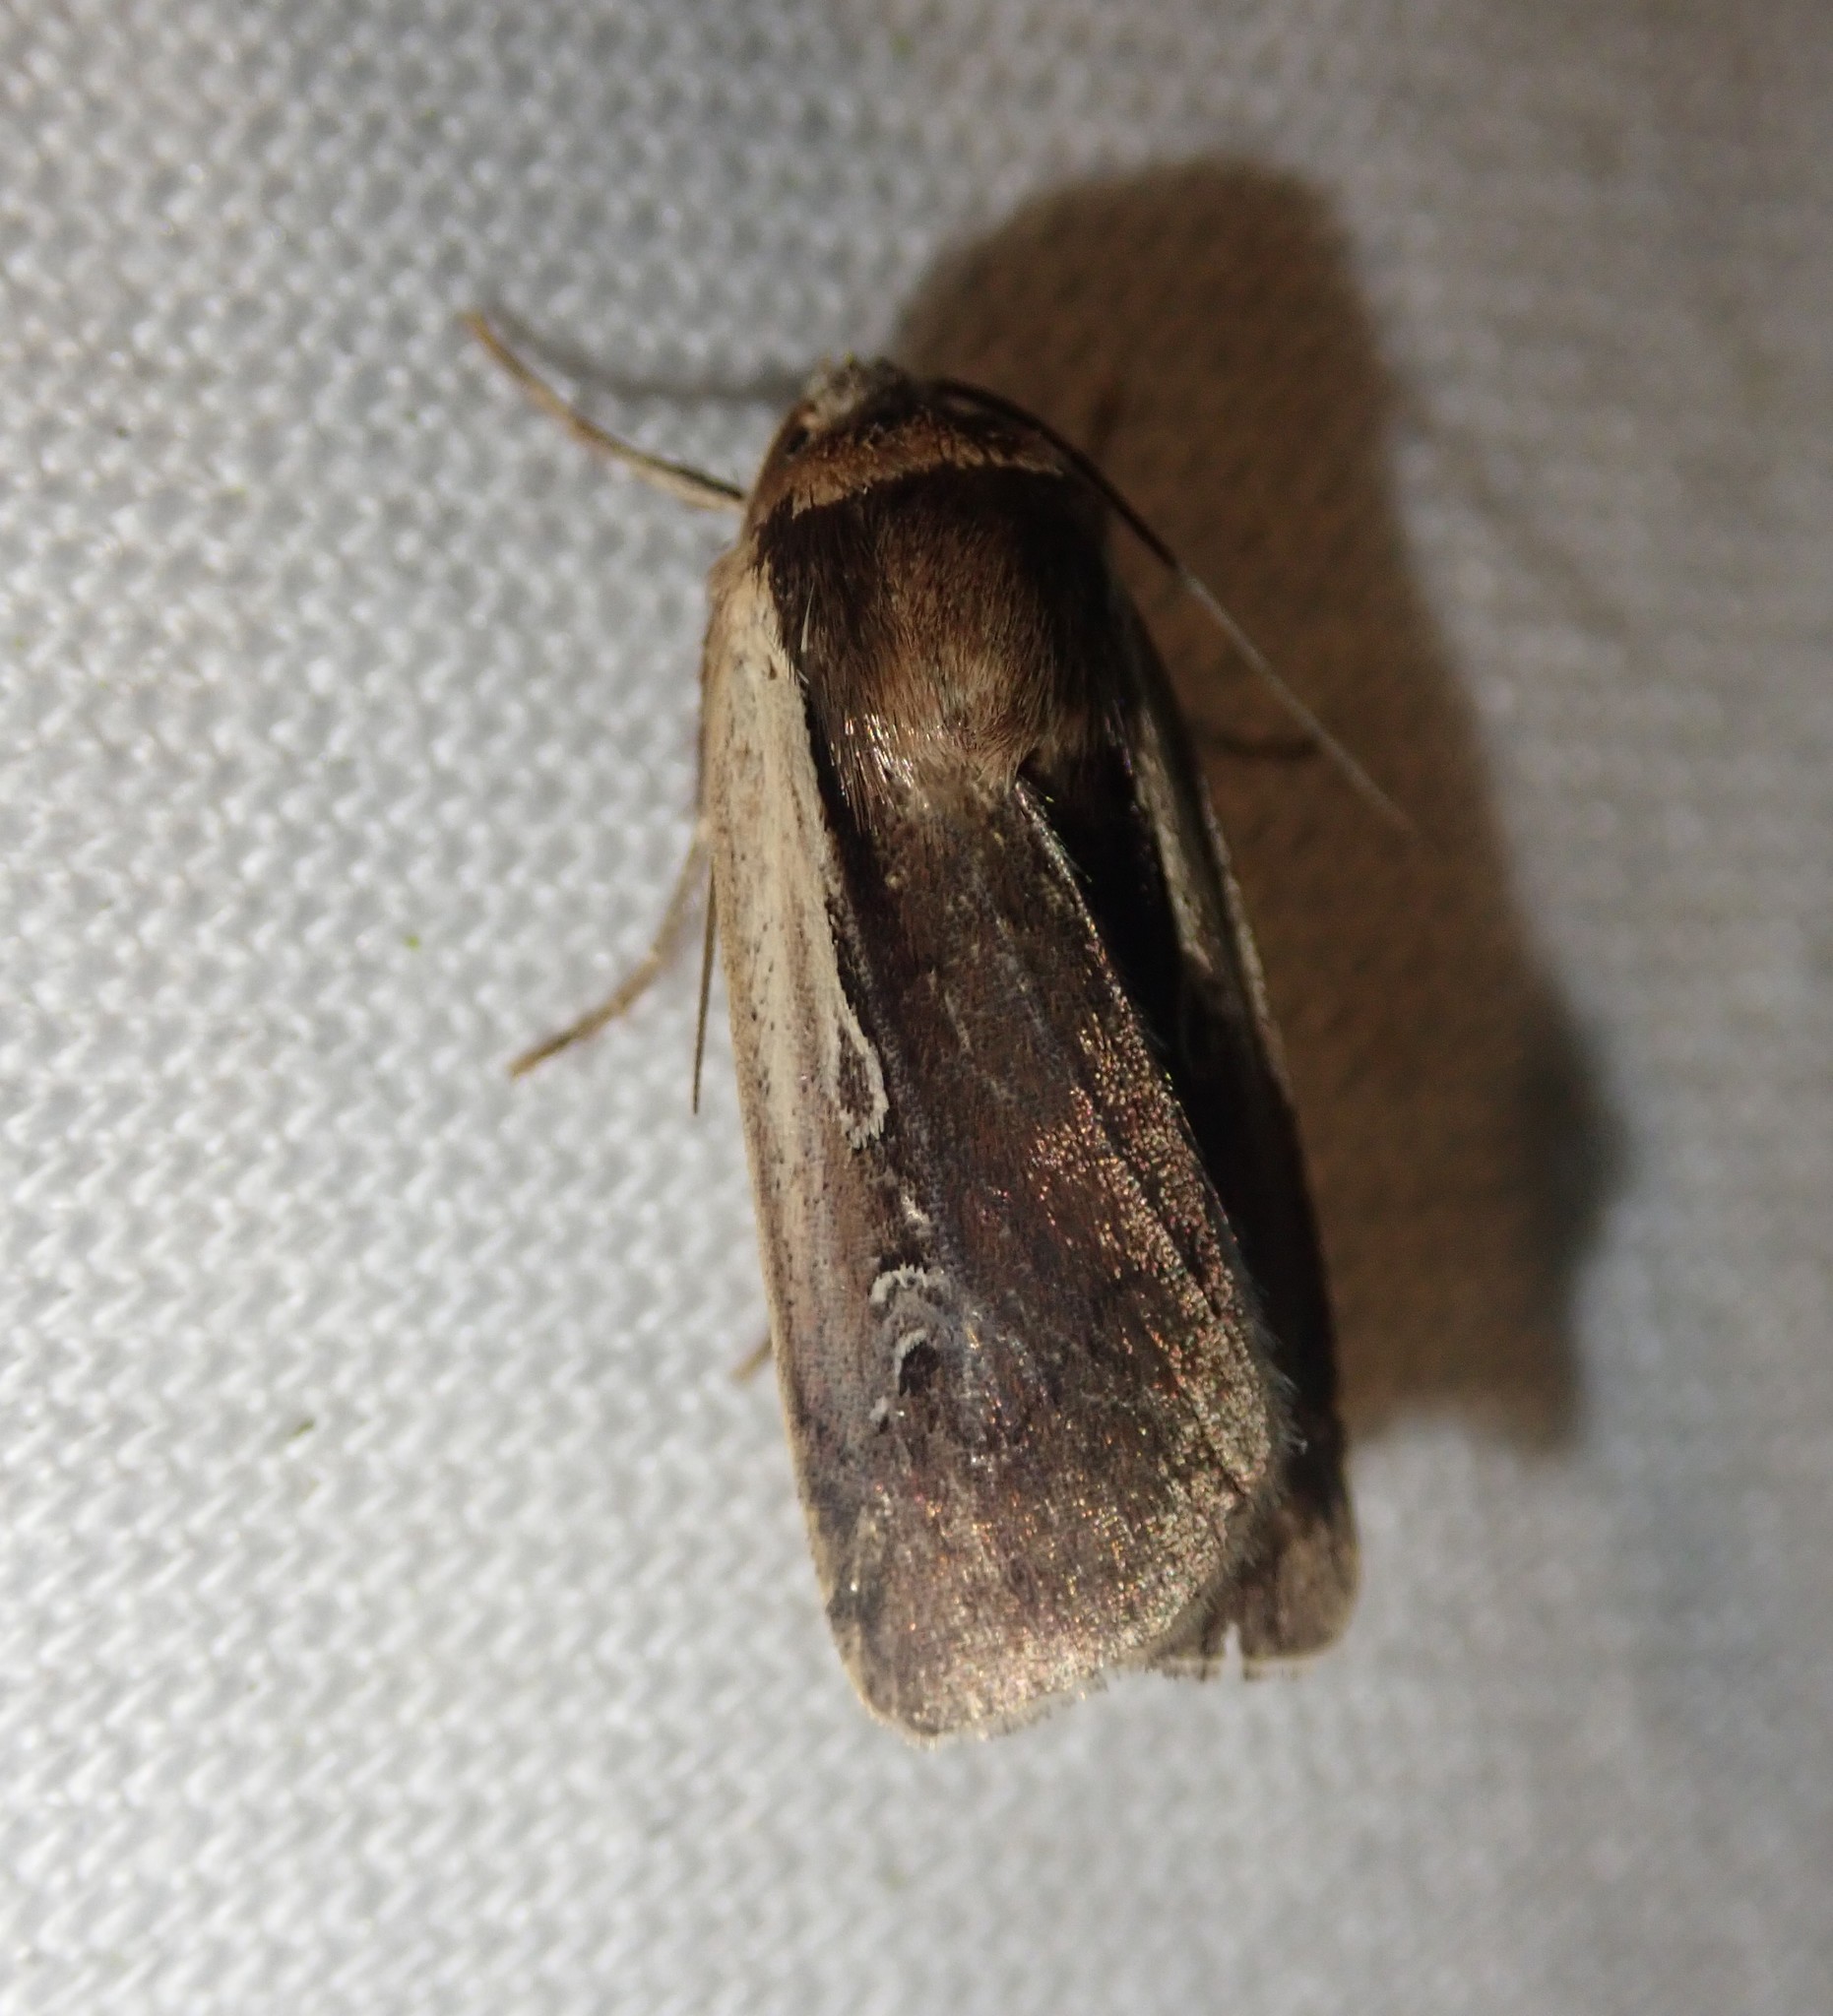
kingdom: Animalia
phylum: Arthropoda
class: Insecta
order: Lepidoptera
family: Noctuidae
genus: Ochropleura
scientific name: Ochropleura plecta
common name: Flame shoulder
